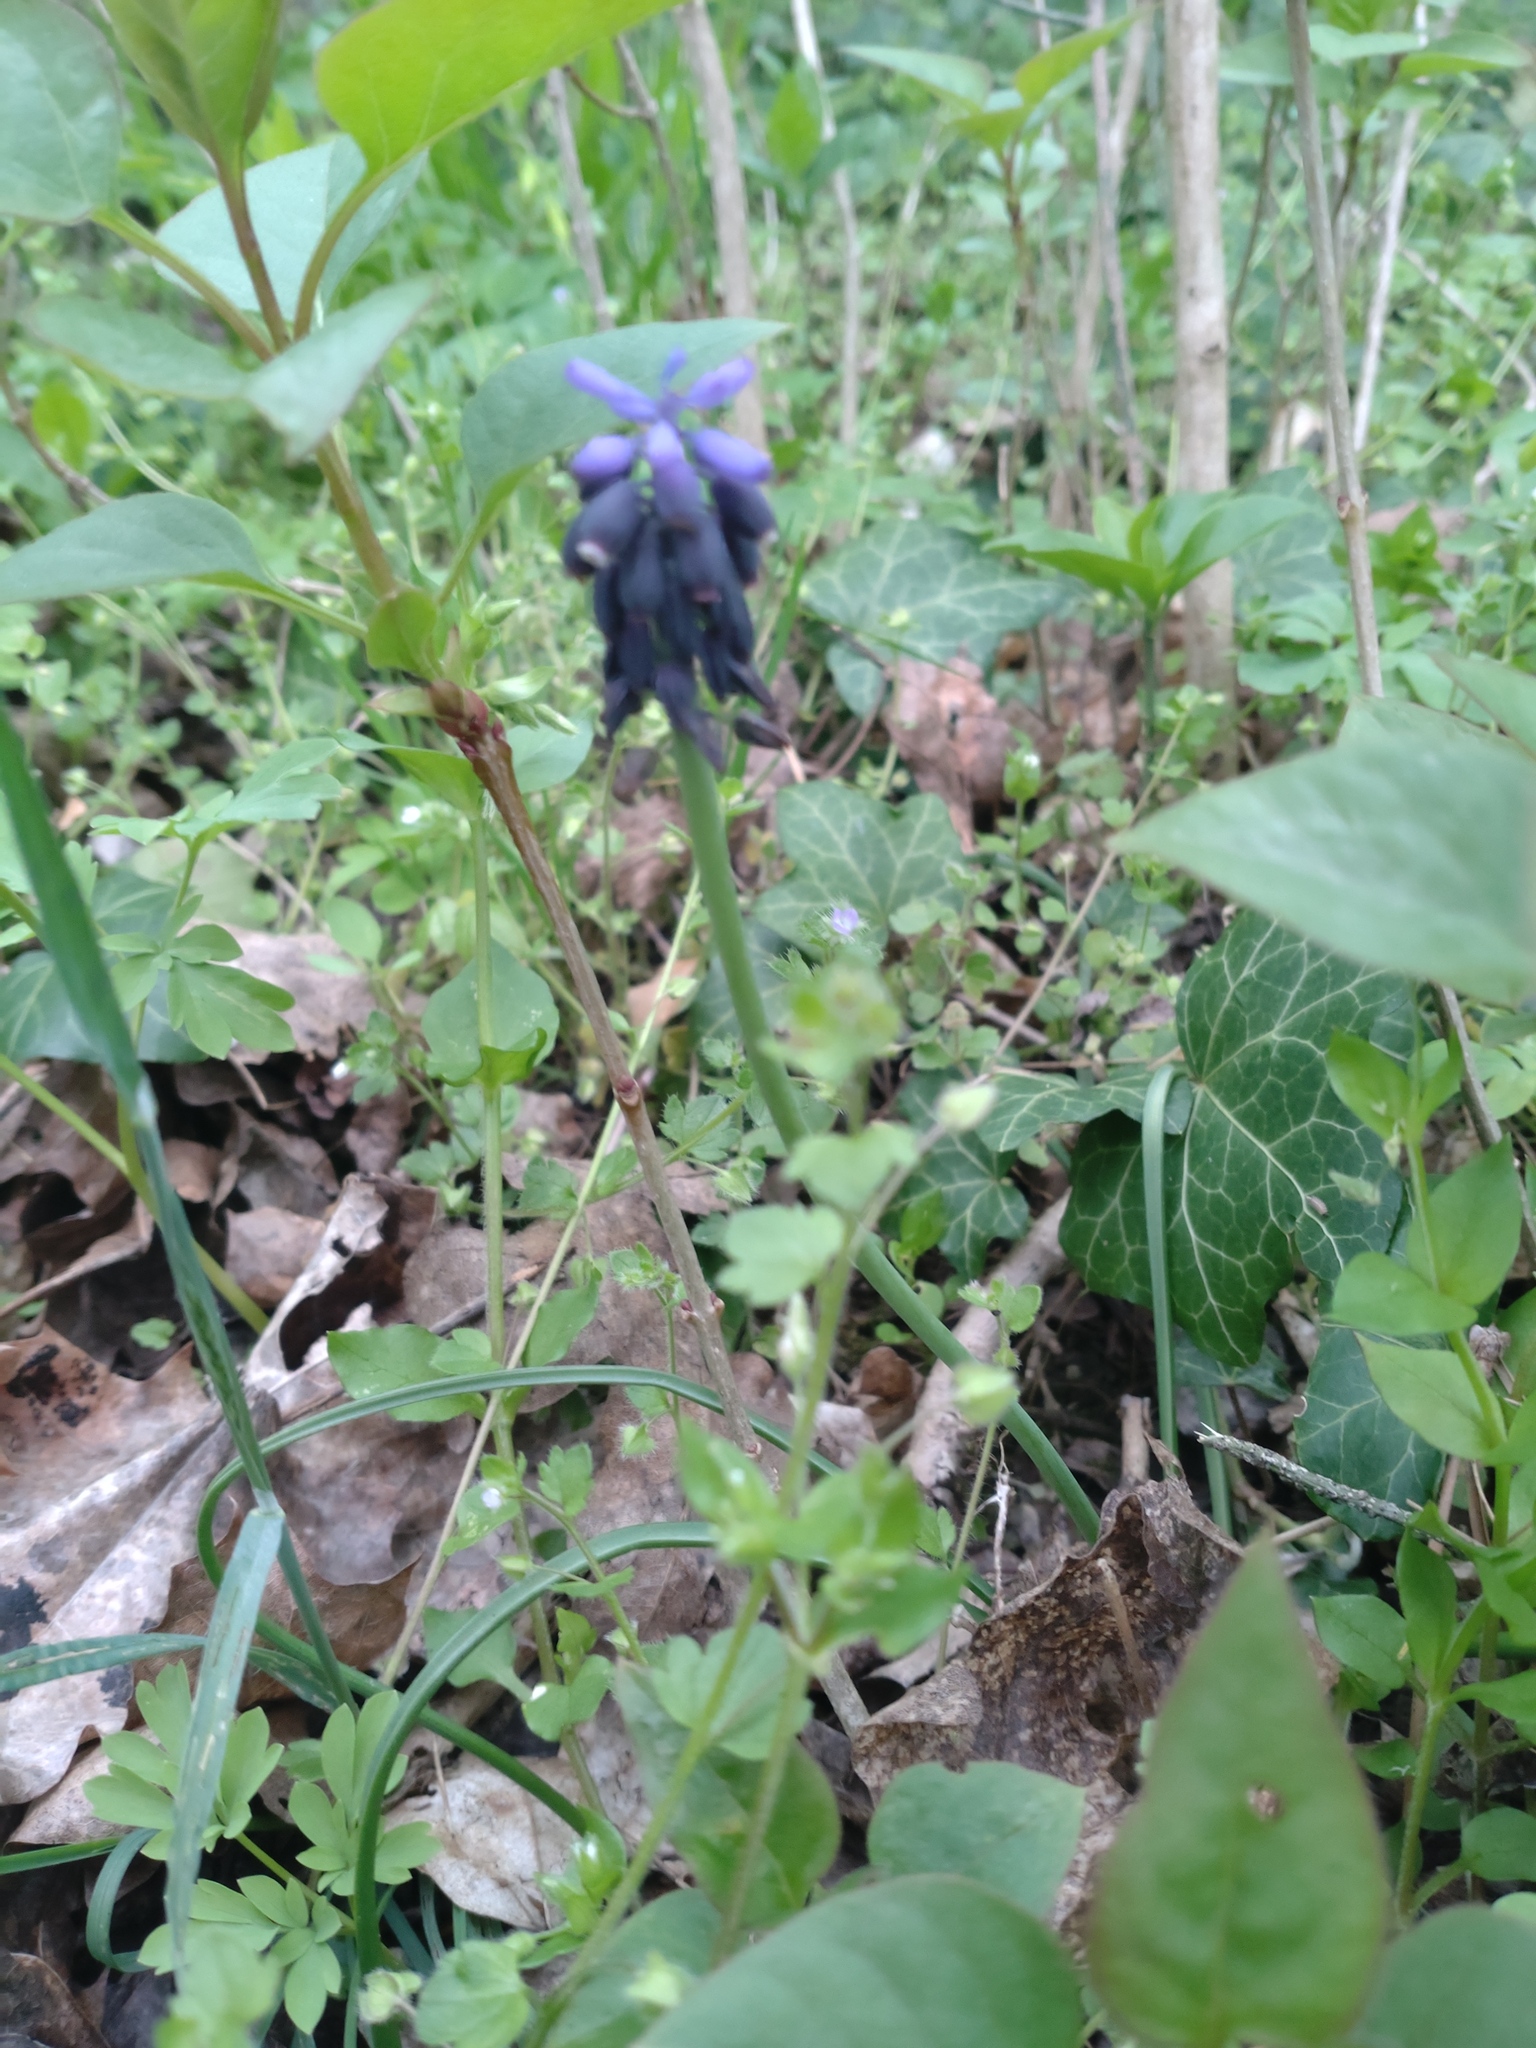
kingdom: Plantae
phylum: Tracheophyta
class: Liliopsida
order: Asparagales
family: Asparagaceae
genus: Muscari
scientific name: Muscari neglectum
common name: Grape-hyacinth
